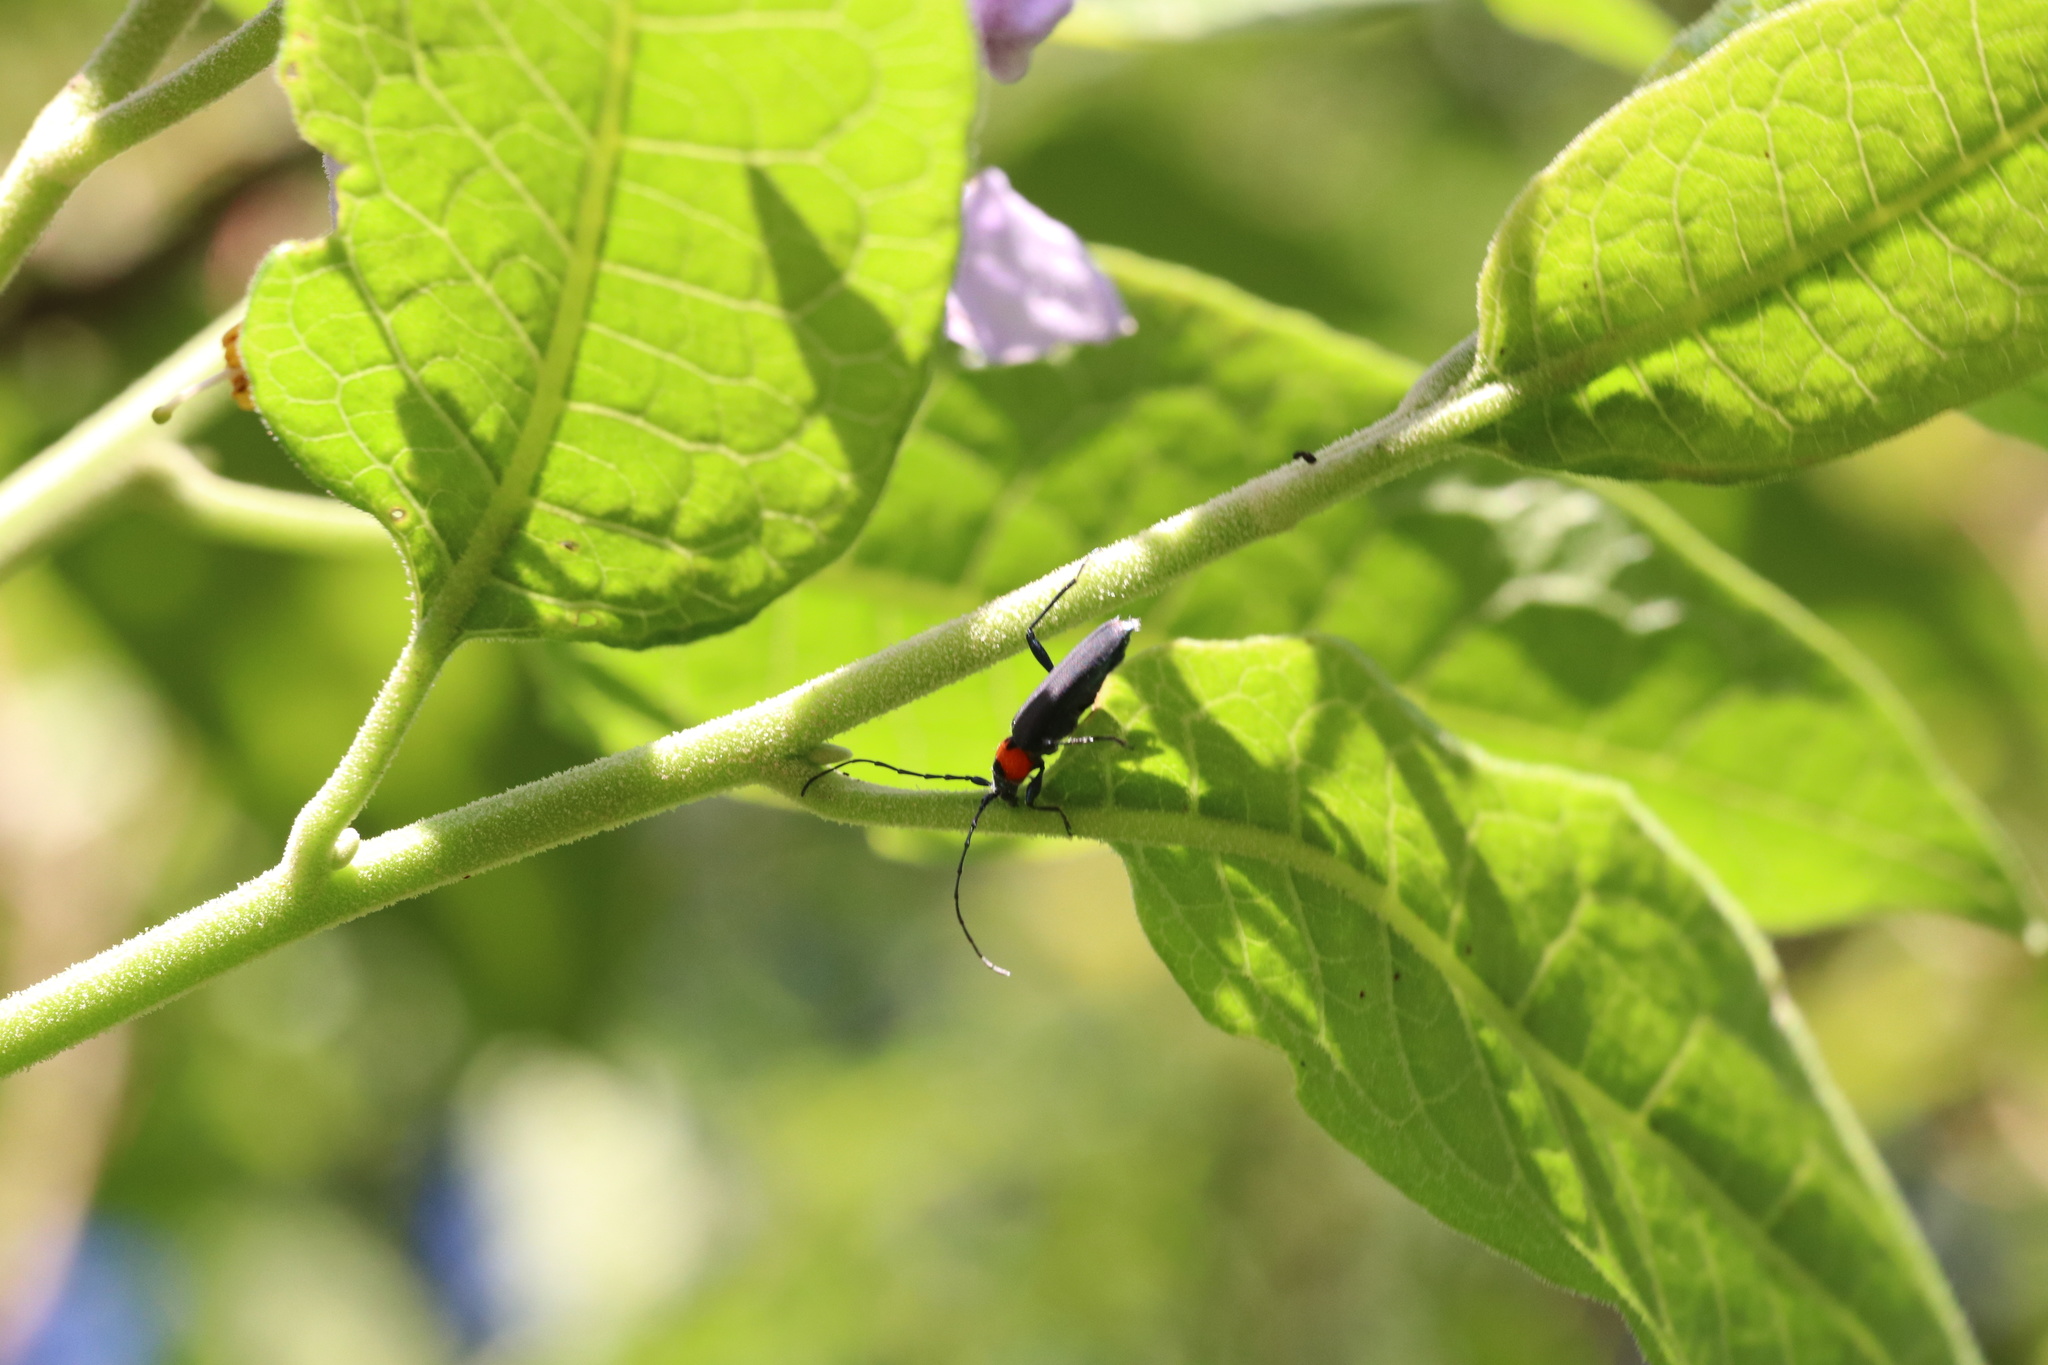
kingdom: Animalia
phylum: Arthropoda
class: Insecta
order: Coleoptera
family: Cerambycidae
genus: Eryphus
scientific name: Eryphus laetus
